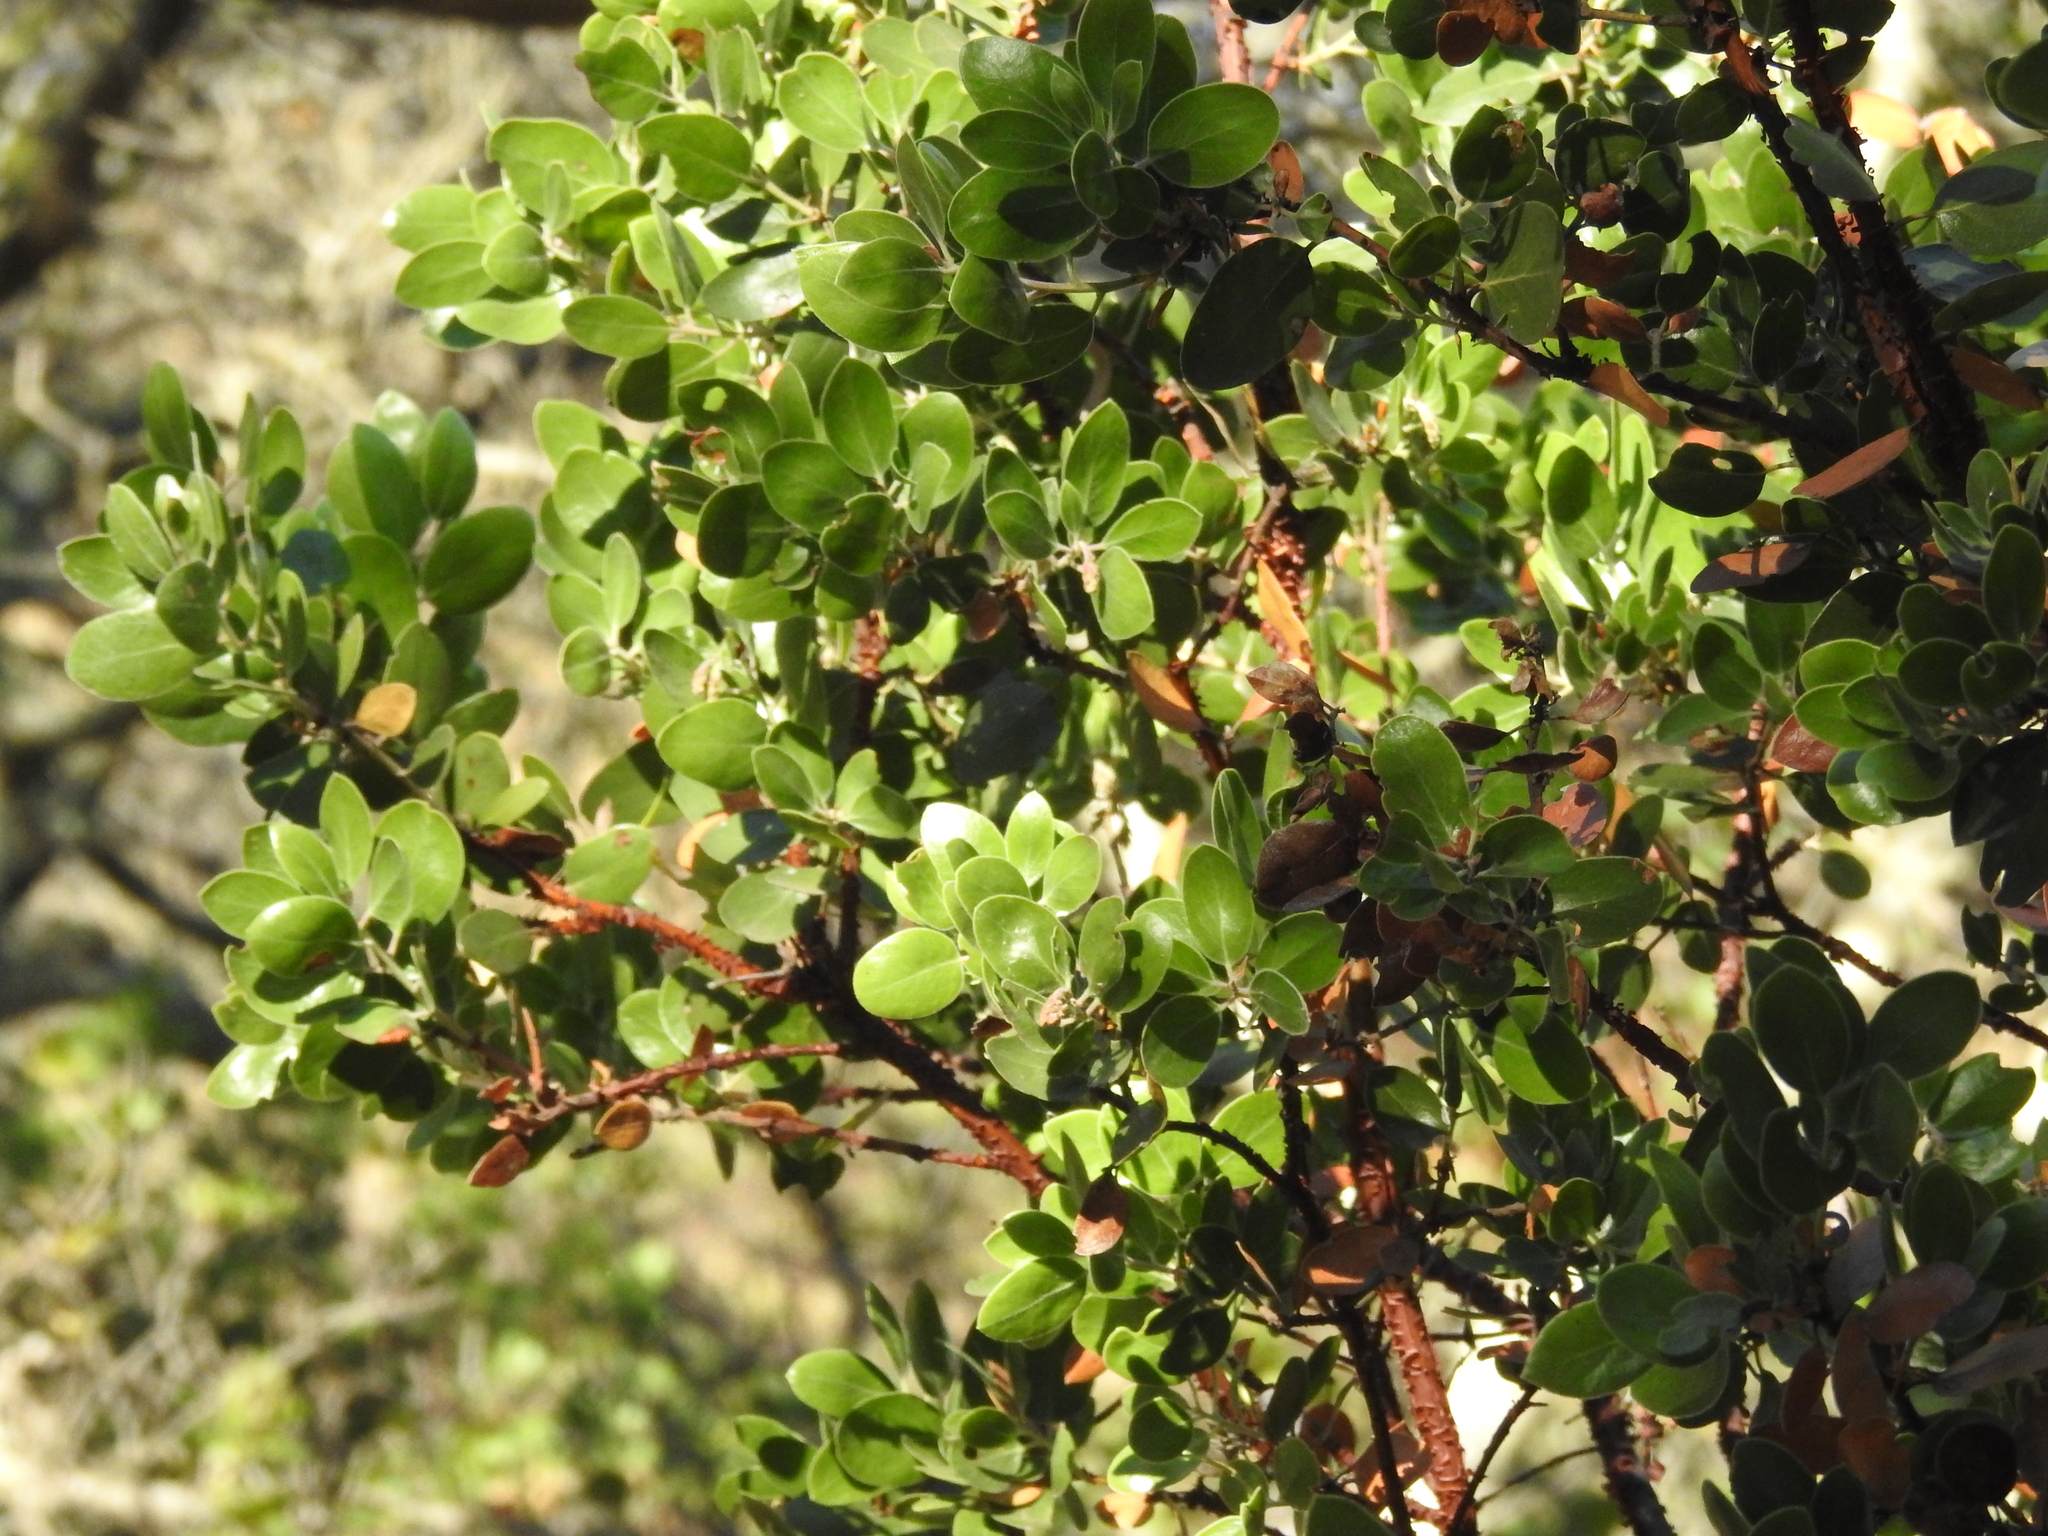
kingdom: Plantae
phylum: Tracheophyta
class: Magnoliopsida
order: Ericales
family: Ericaceae
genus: Arctostaphylos
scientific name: Arctostaphylos manzanita
